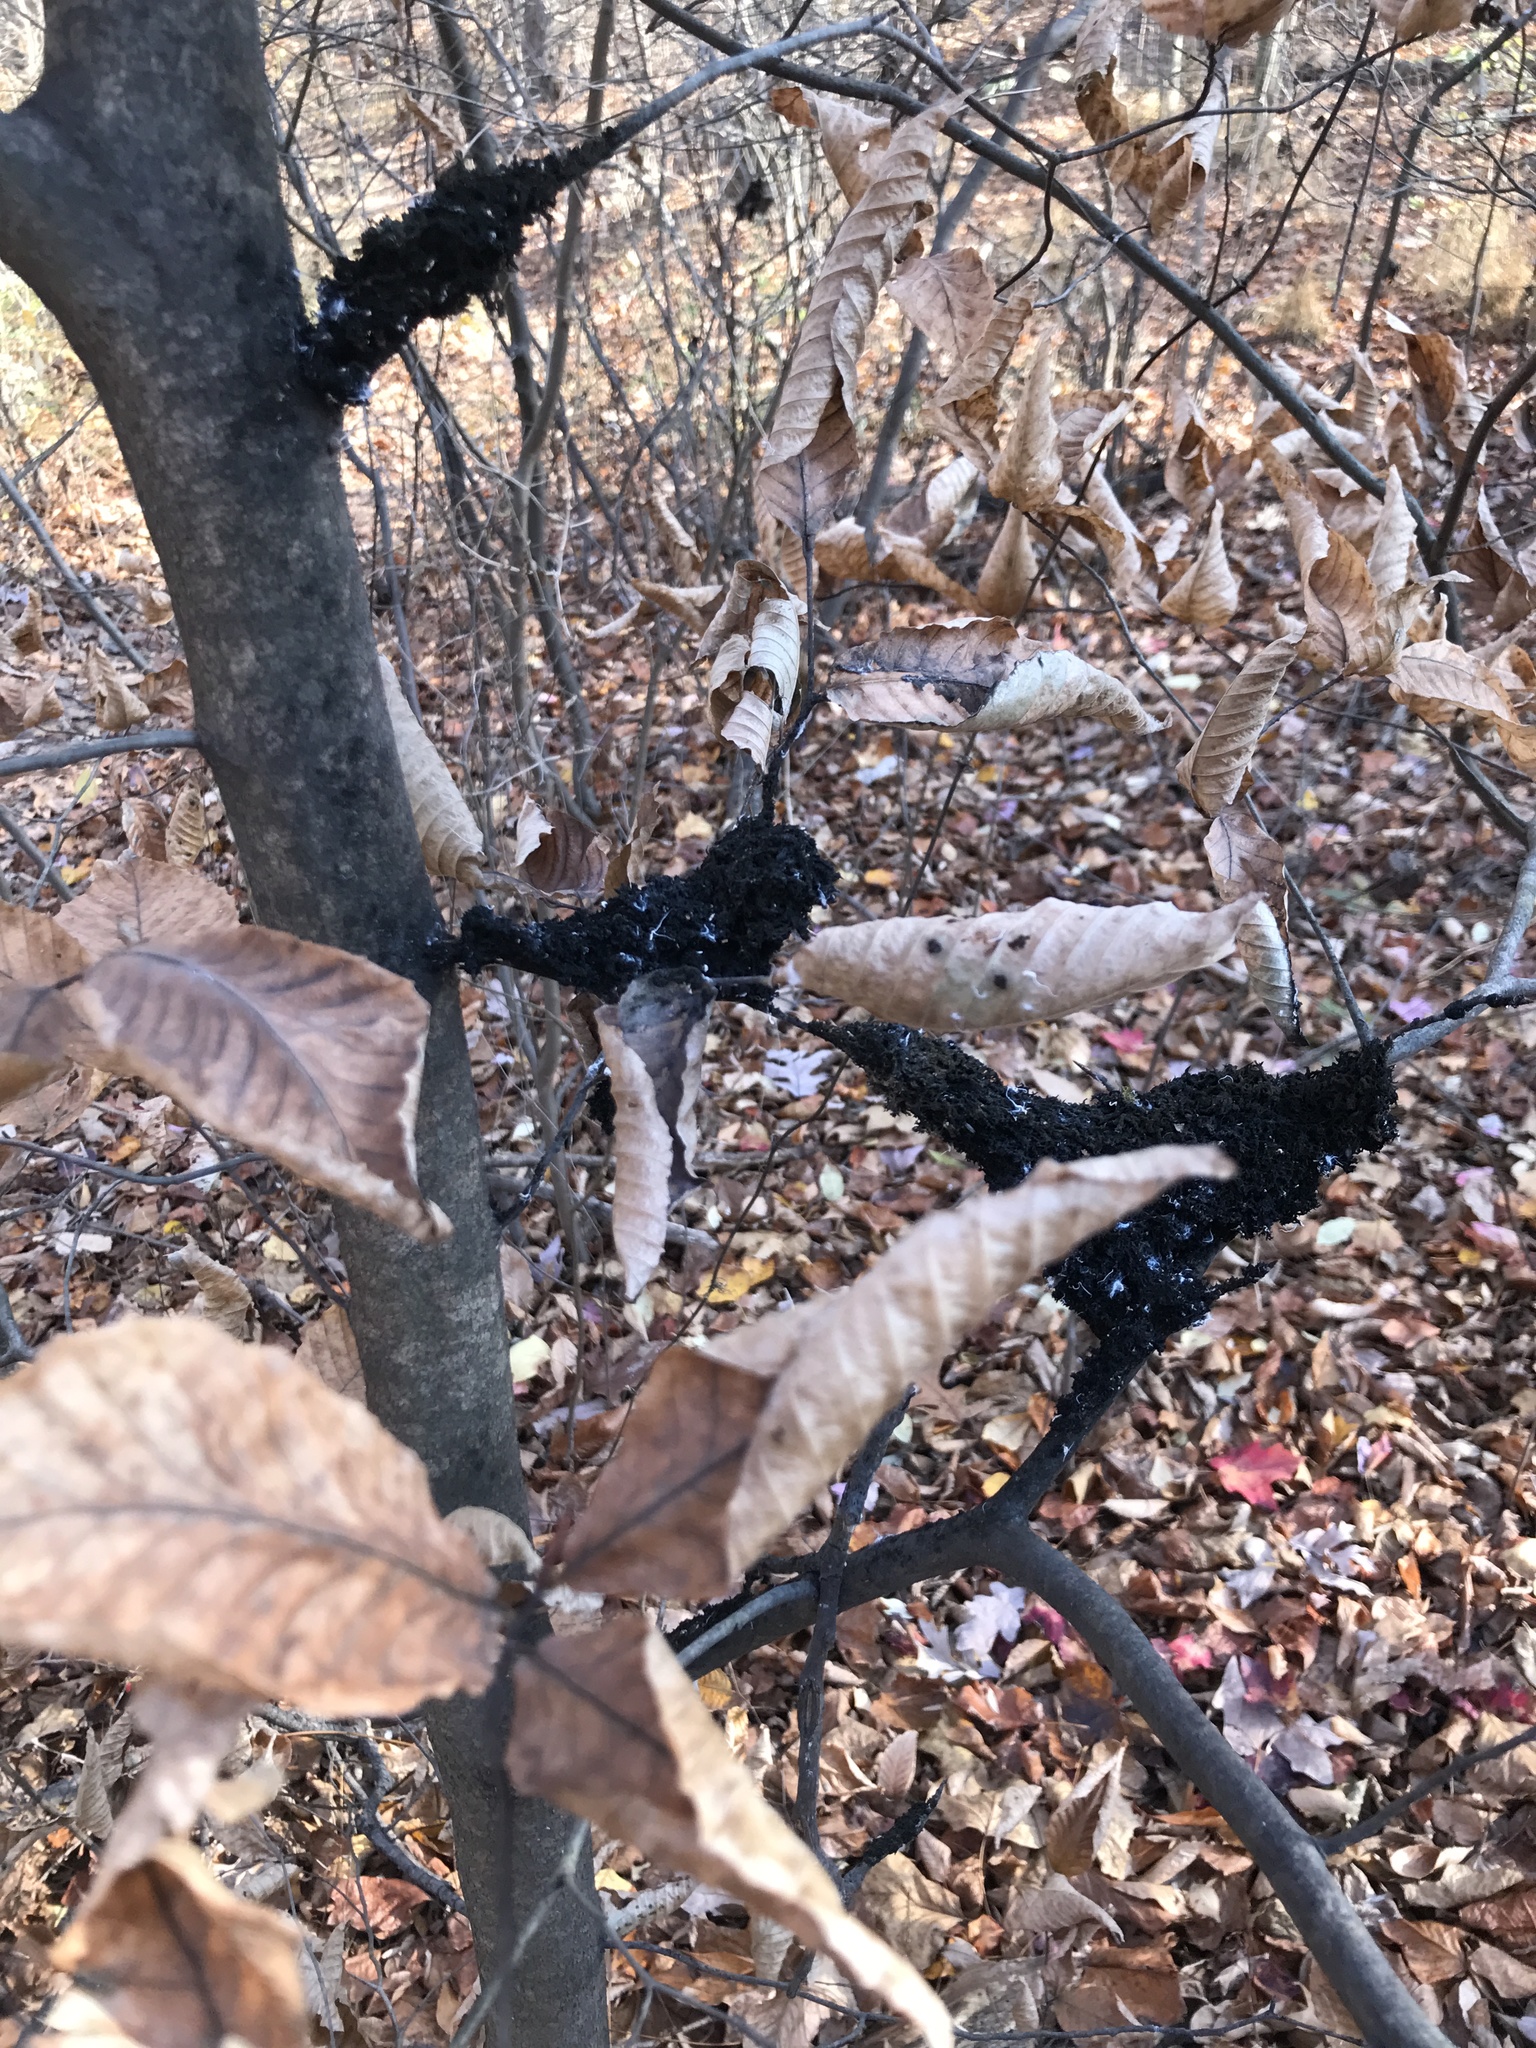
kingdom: Fungi
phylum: Ascomycota
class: Dothideomycetes
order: Capnodiales
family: Capnodiaceae
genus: Scorias
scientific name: Scorias spongiosa
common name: Black sooty mold
